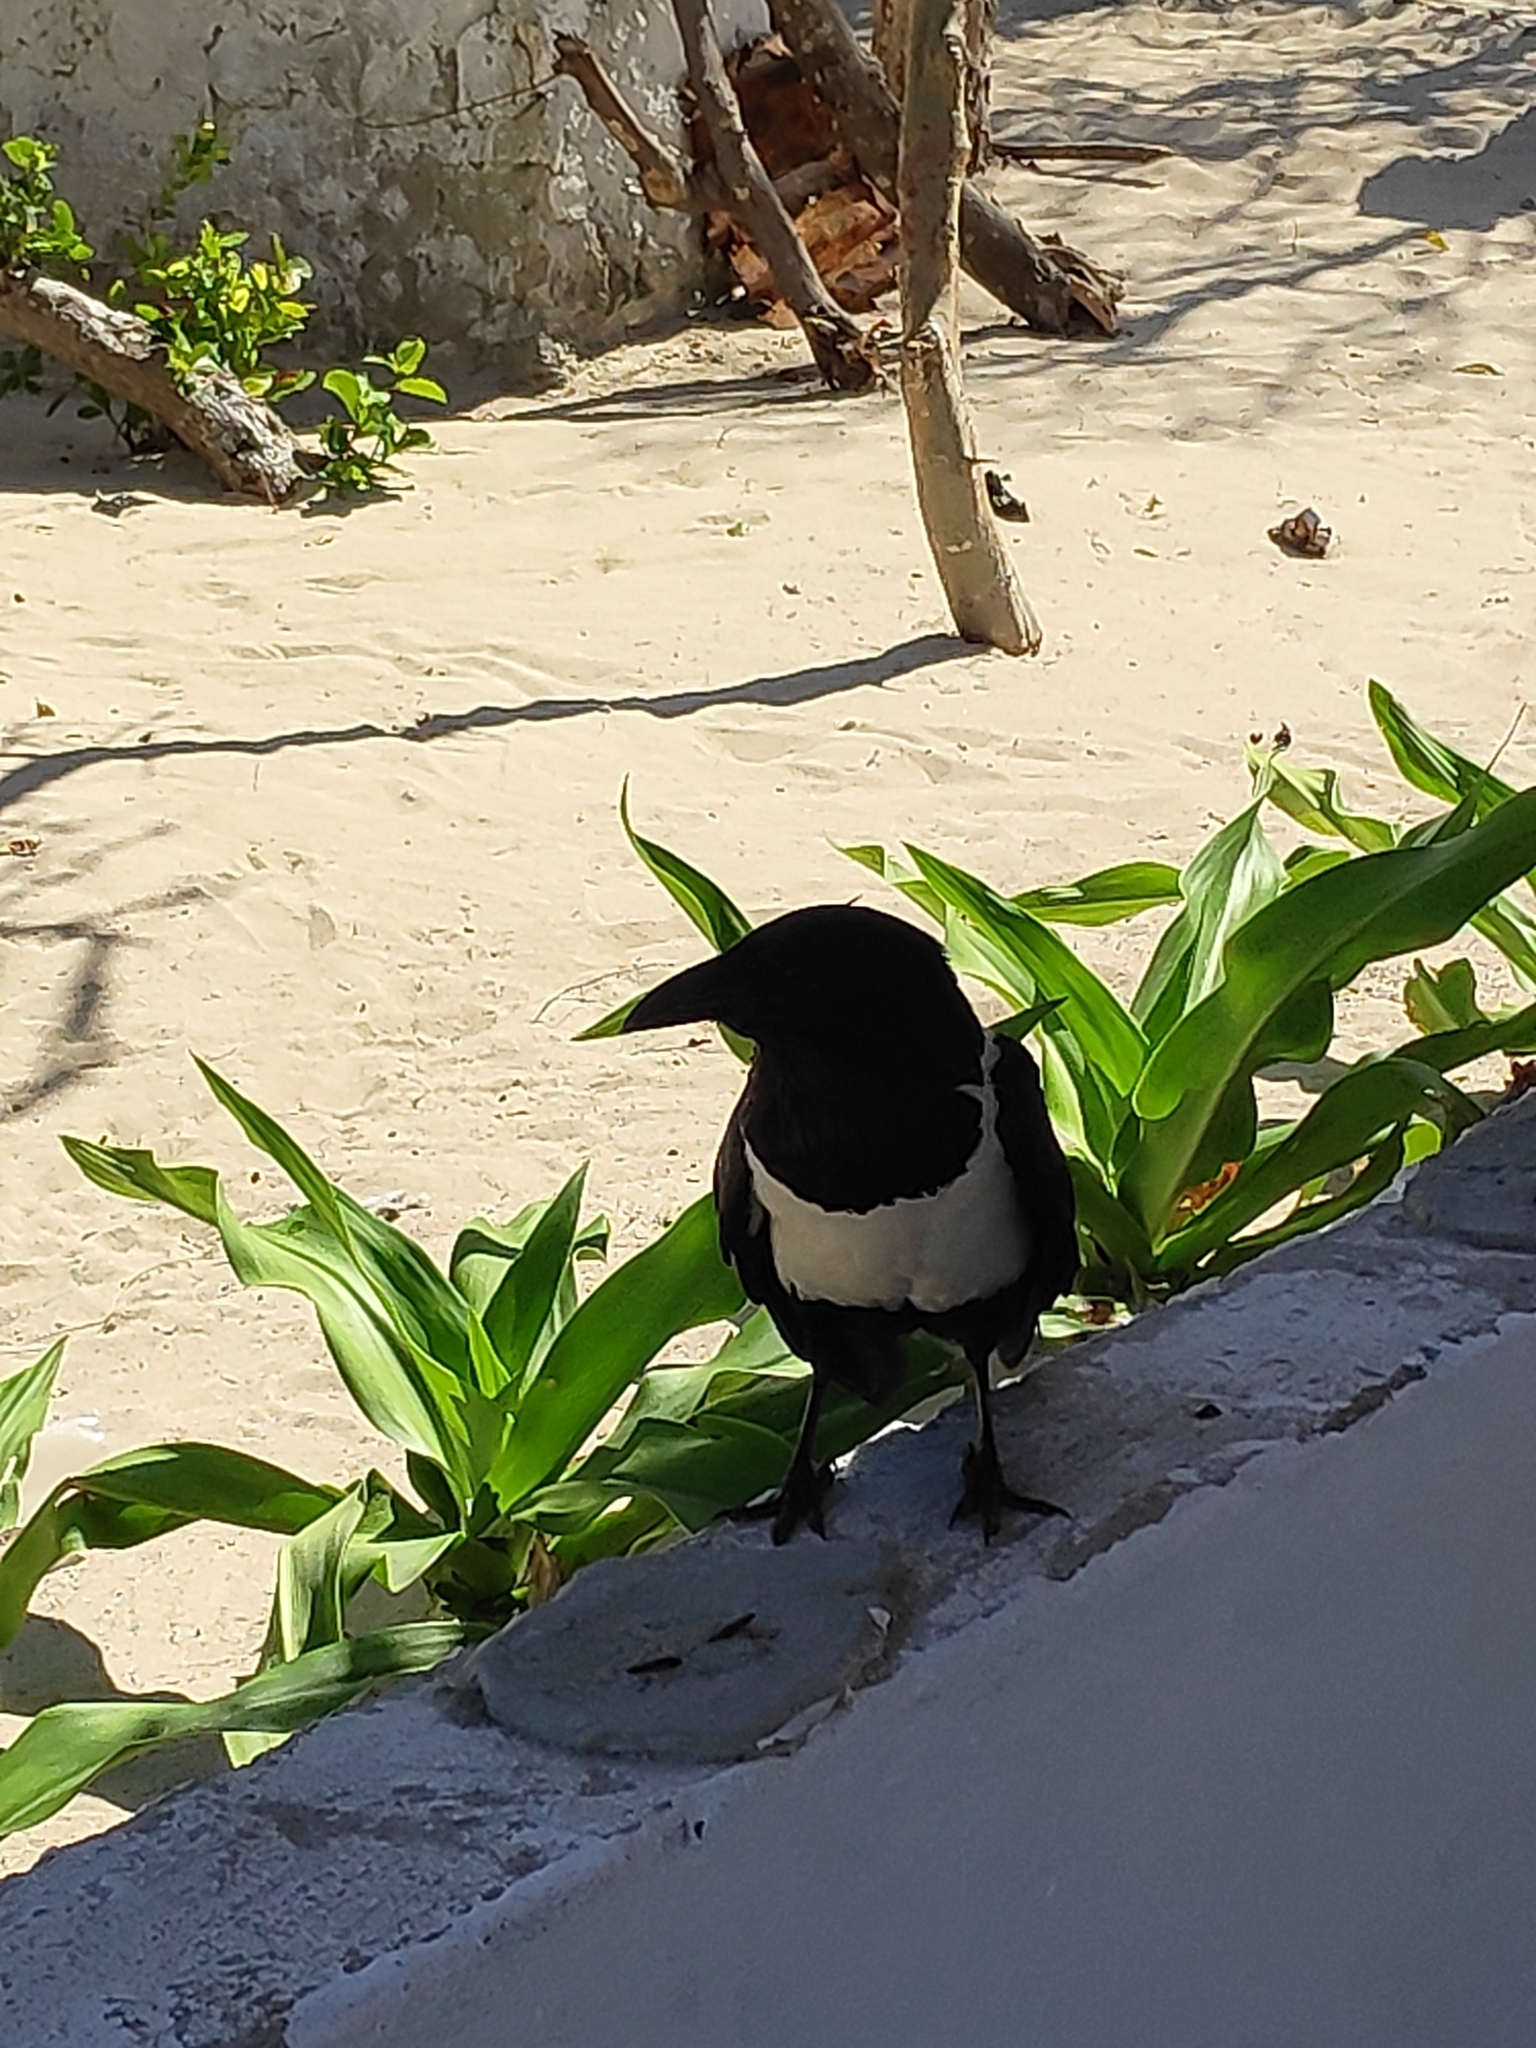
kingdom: Animalia
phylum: Chordata
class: Aves
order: Passeriformes
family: Corvidae
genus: Corvus
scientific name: Corvus albus
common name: Pied crow
